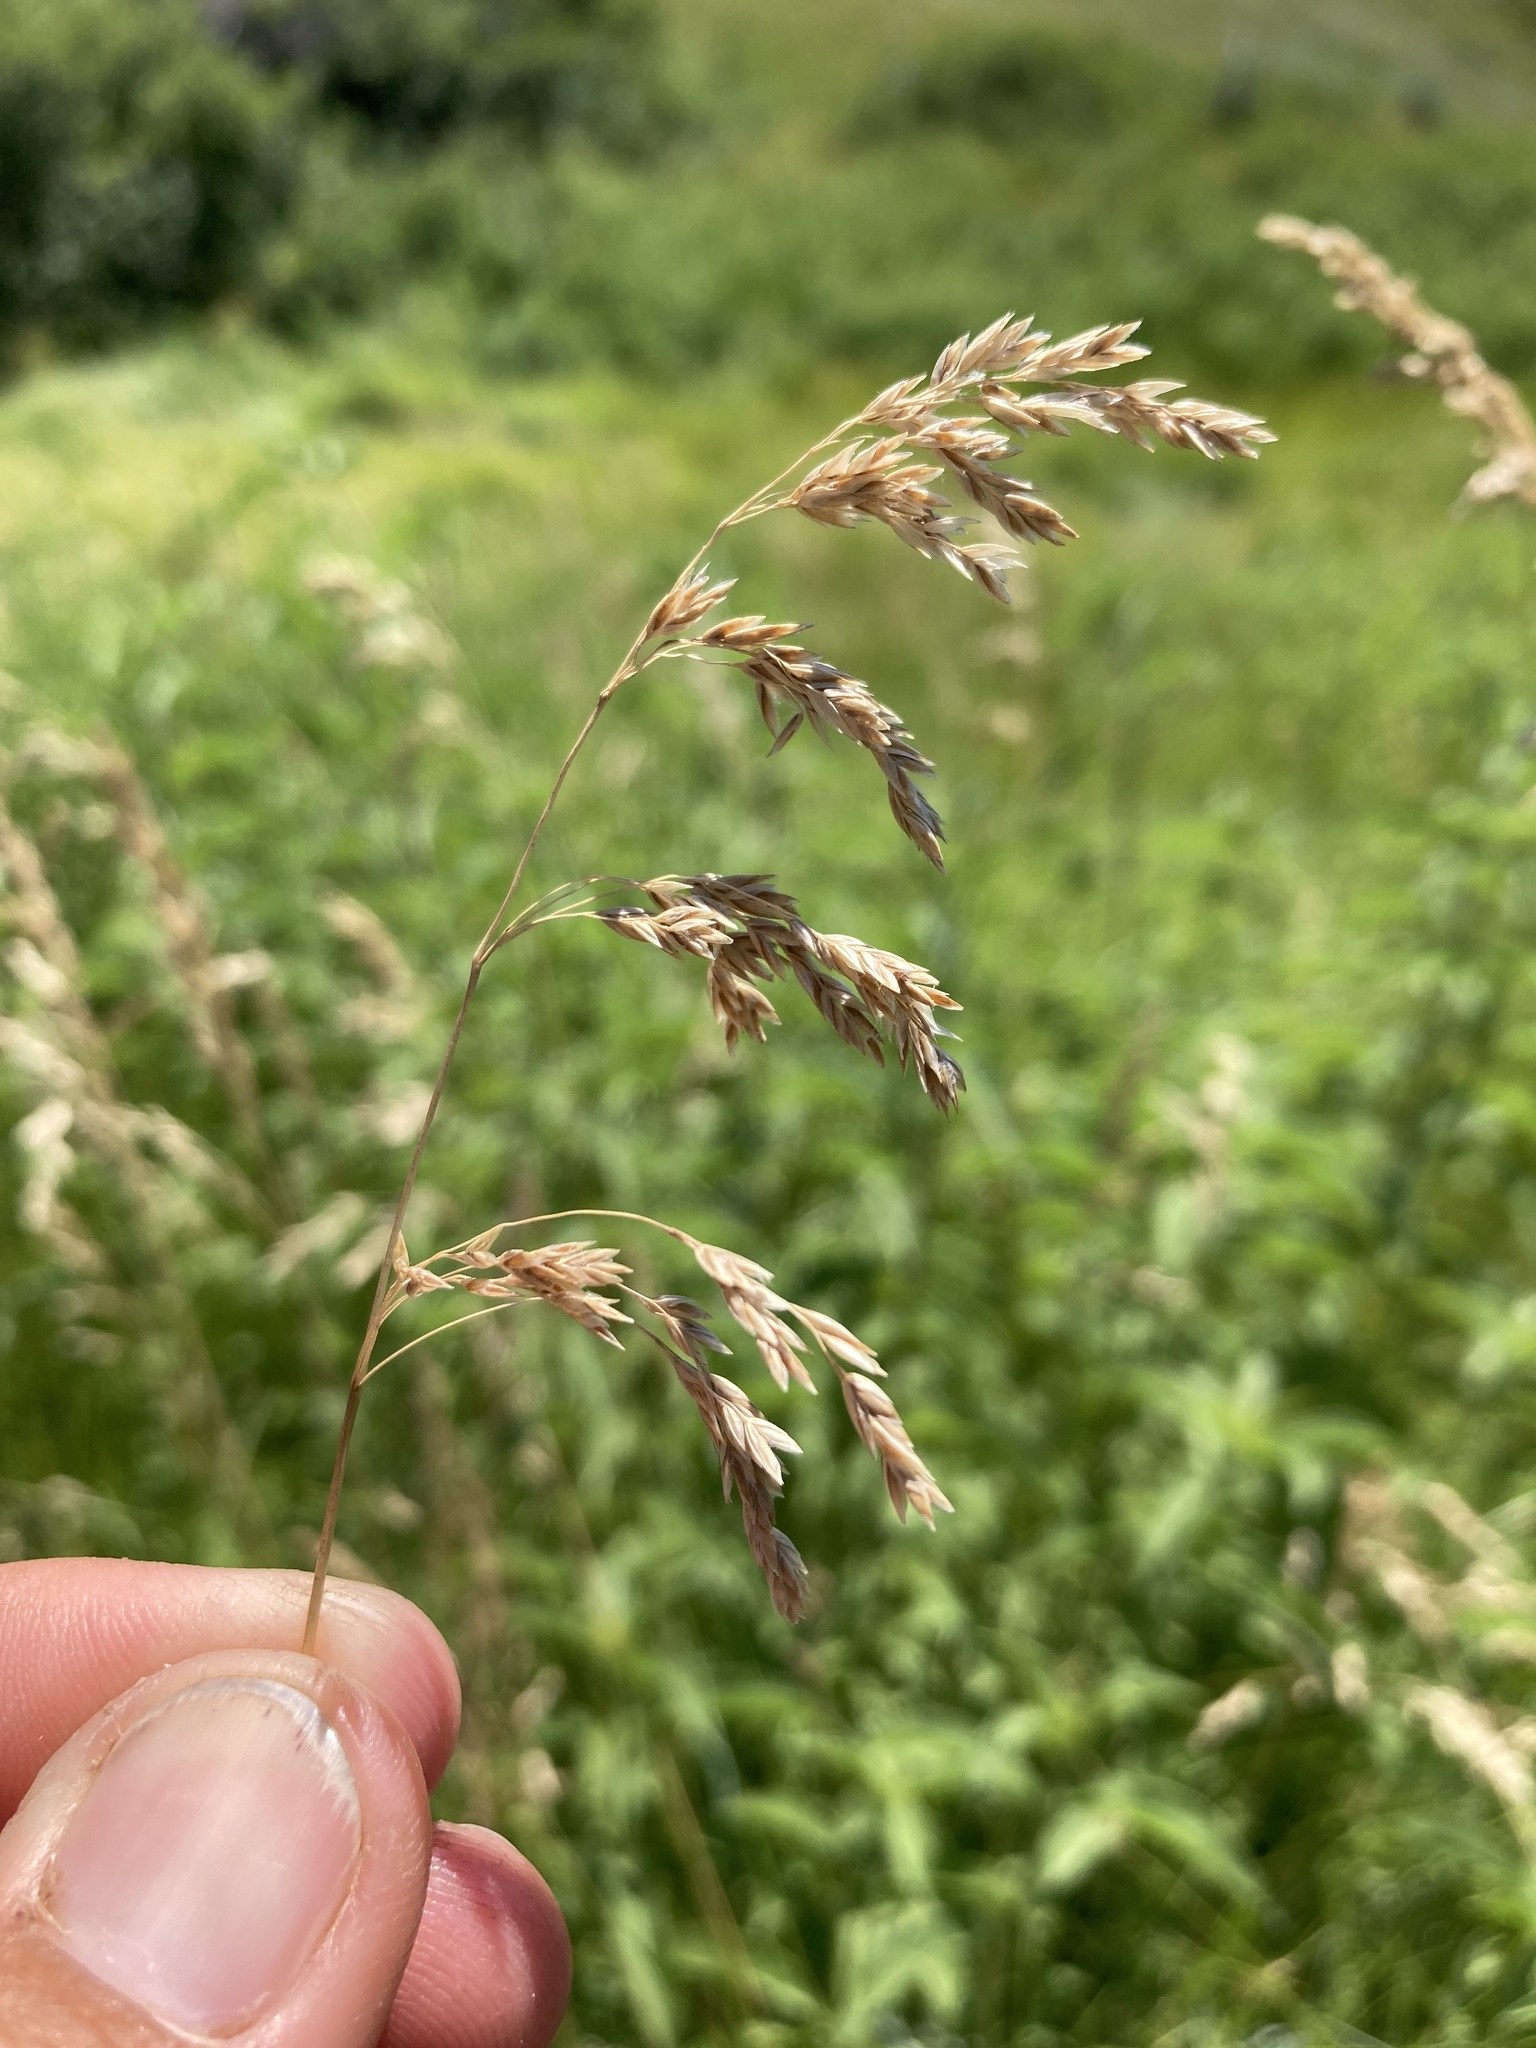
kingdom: Plantae
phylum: Tracheophyta
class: Liliopsida
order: Poales
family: Poaceae
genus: Poa
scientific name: Poa pratensis
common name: Kentucky bluegrass
